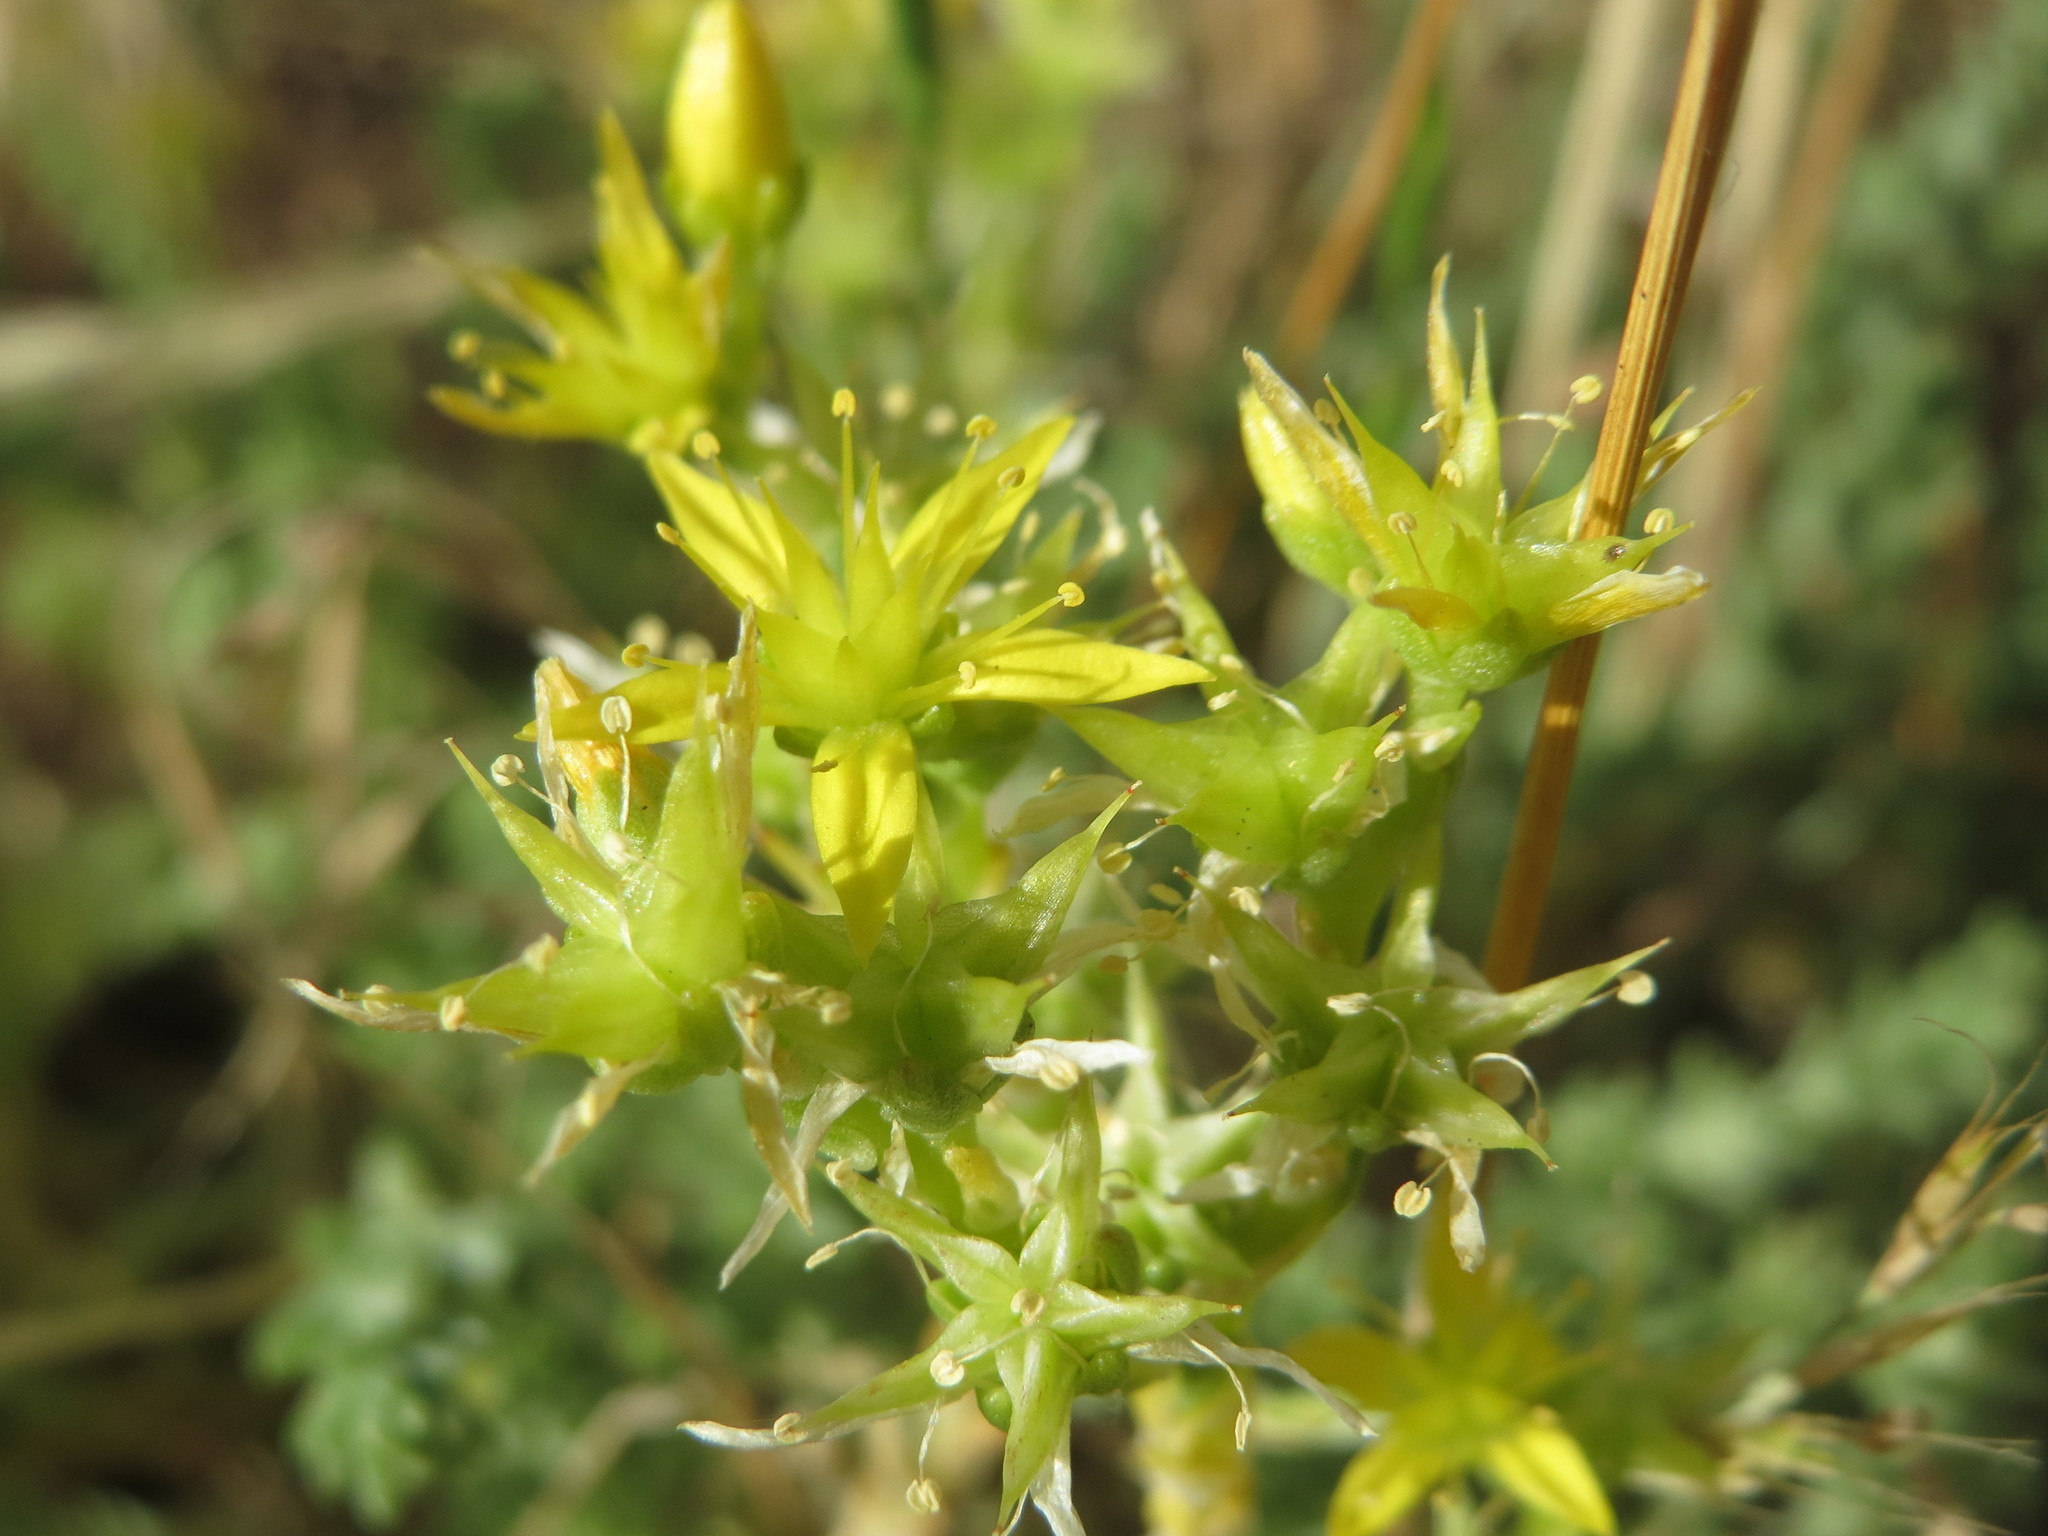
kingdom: Plantae
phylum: Tracheophyta
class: Magnoliopsida
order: Saxifragales
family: Crassulaceae
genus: Sedum
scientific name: Sedum acre
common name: Biting stonecrop
